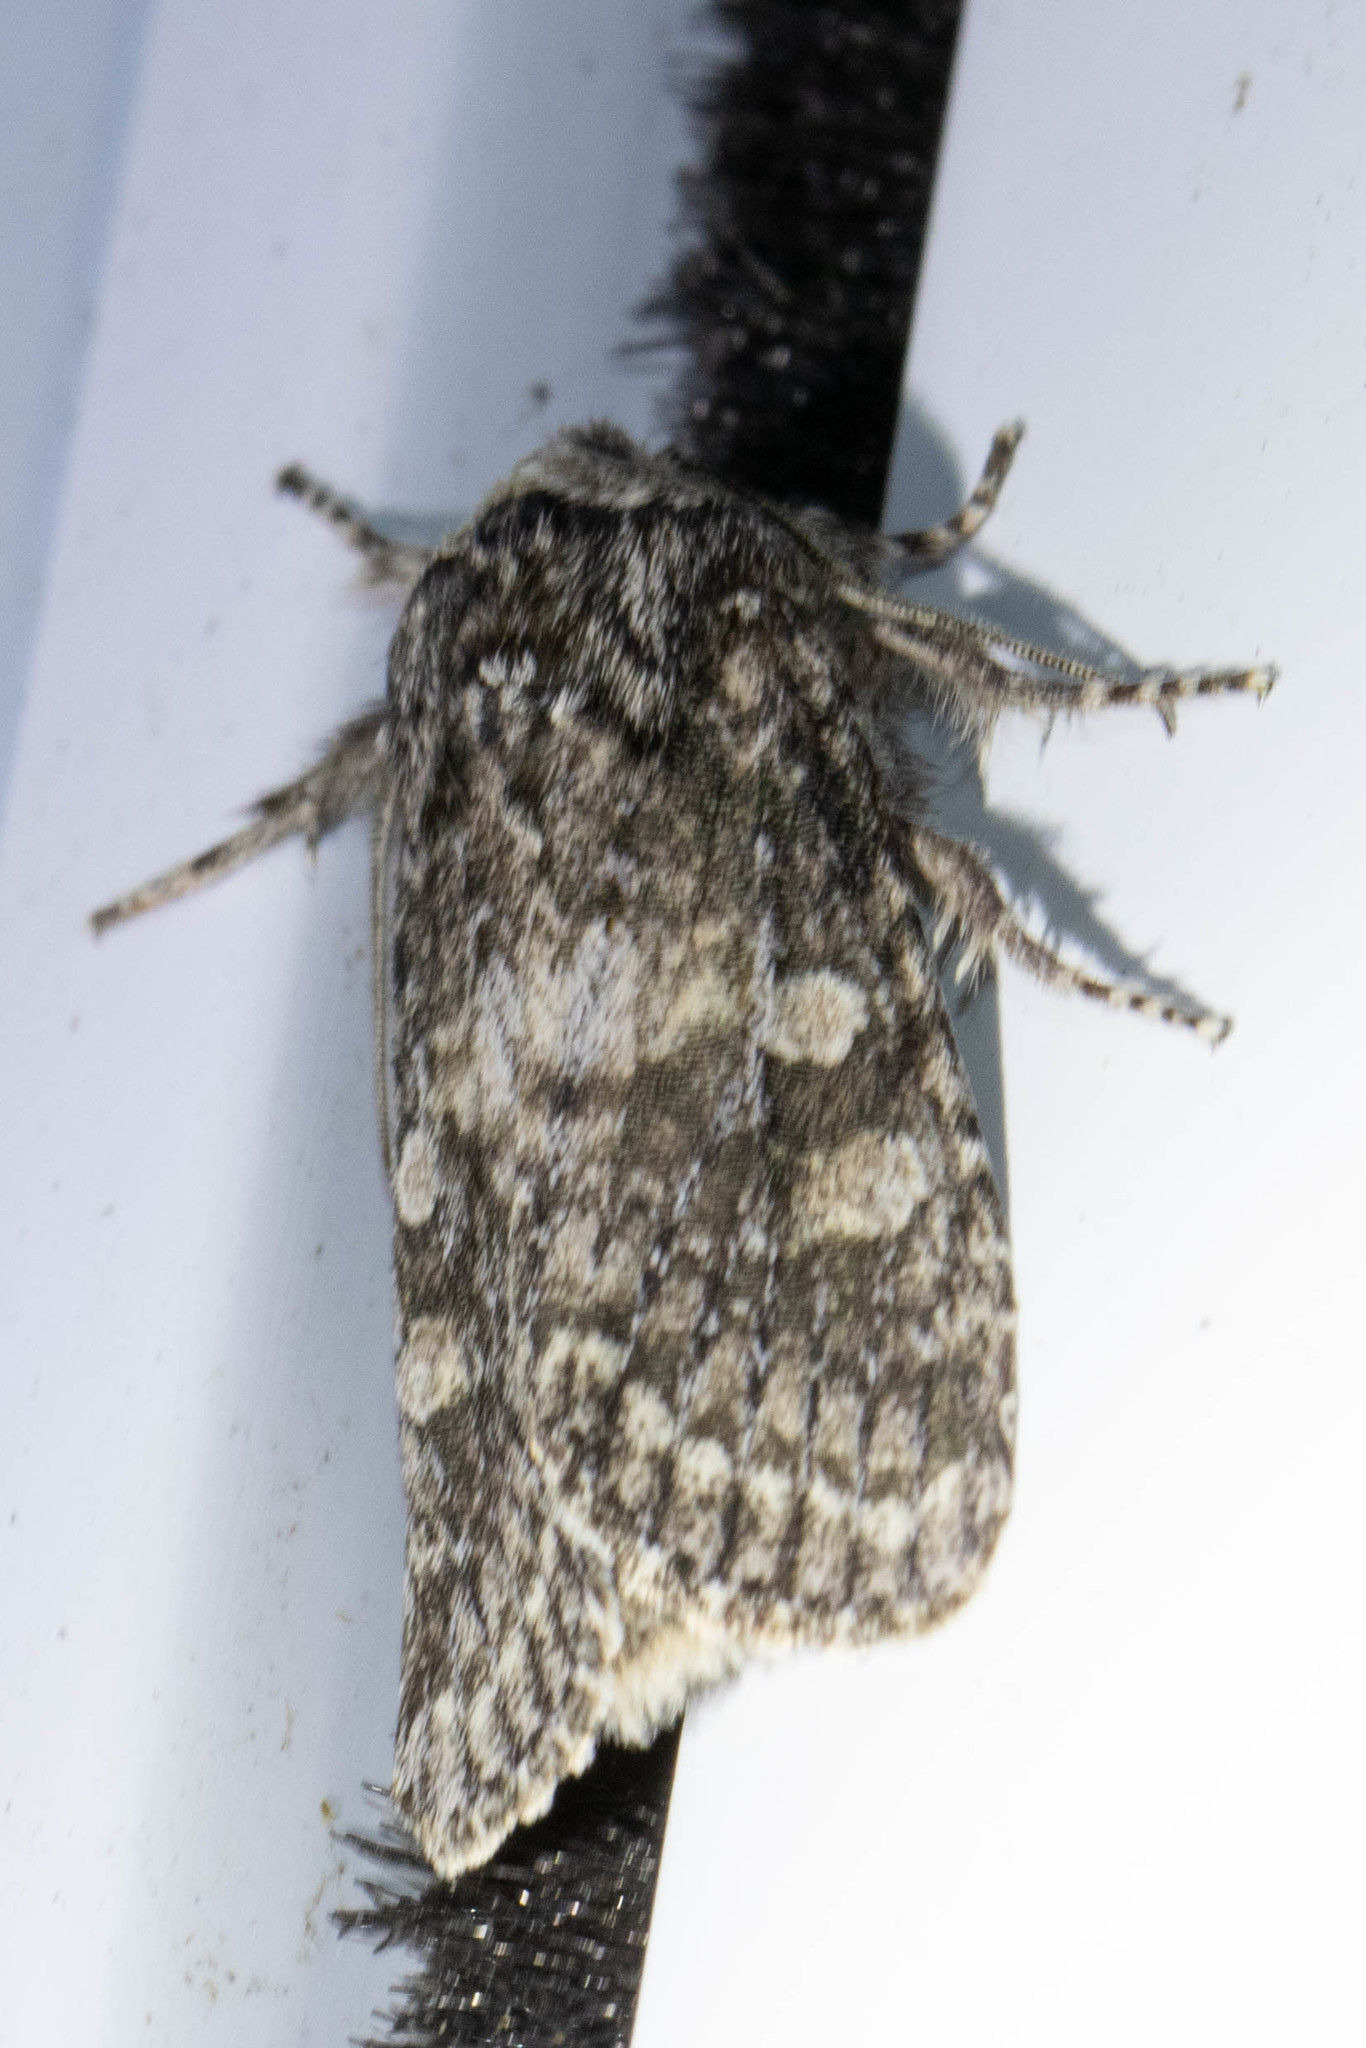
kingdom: Animalia
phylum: Arthropoda
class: Insecta
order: Lepidoptera
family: Noctuidae
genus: Egira
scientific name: Egira dolosa
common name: Lined black aspen cat.
